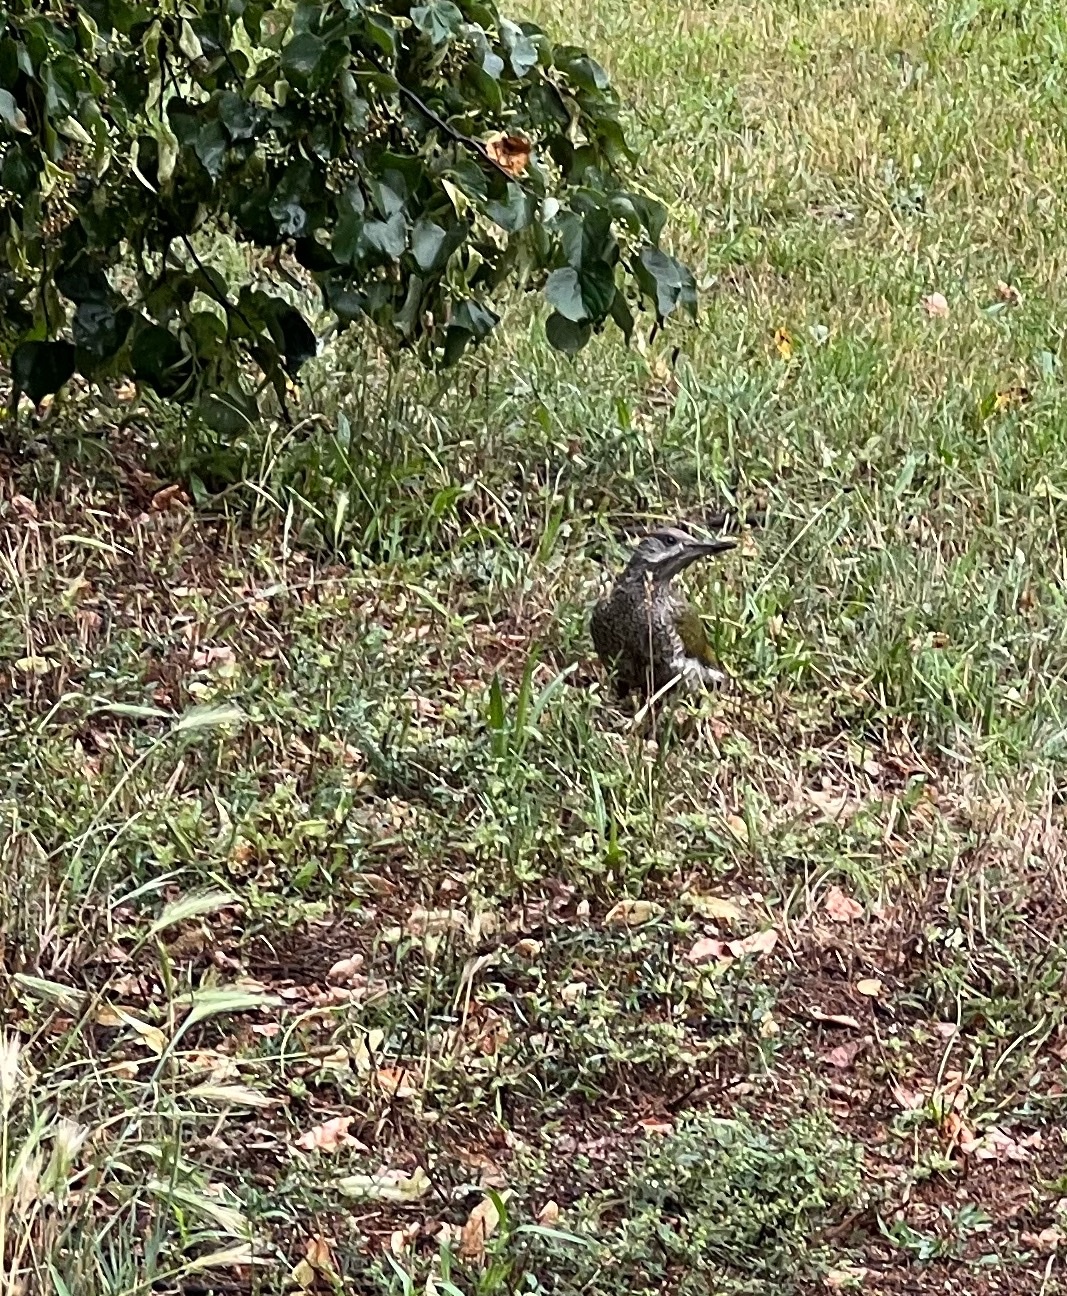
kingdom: Animalia
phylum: Chordata
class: Aves
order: Piciformes
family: Picidae
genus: Picus
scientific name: Picus viridis
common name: European green woodpecker
